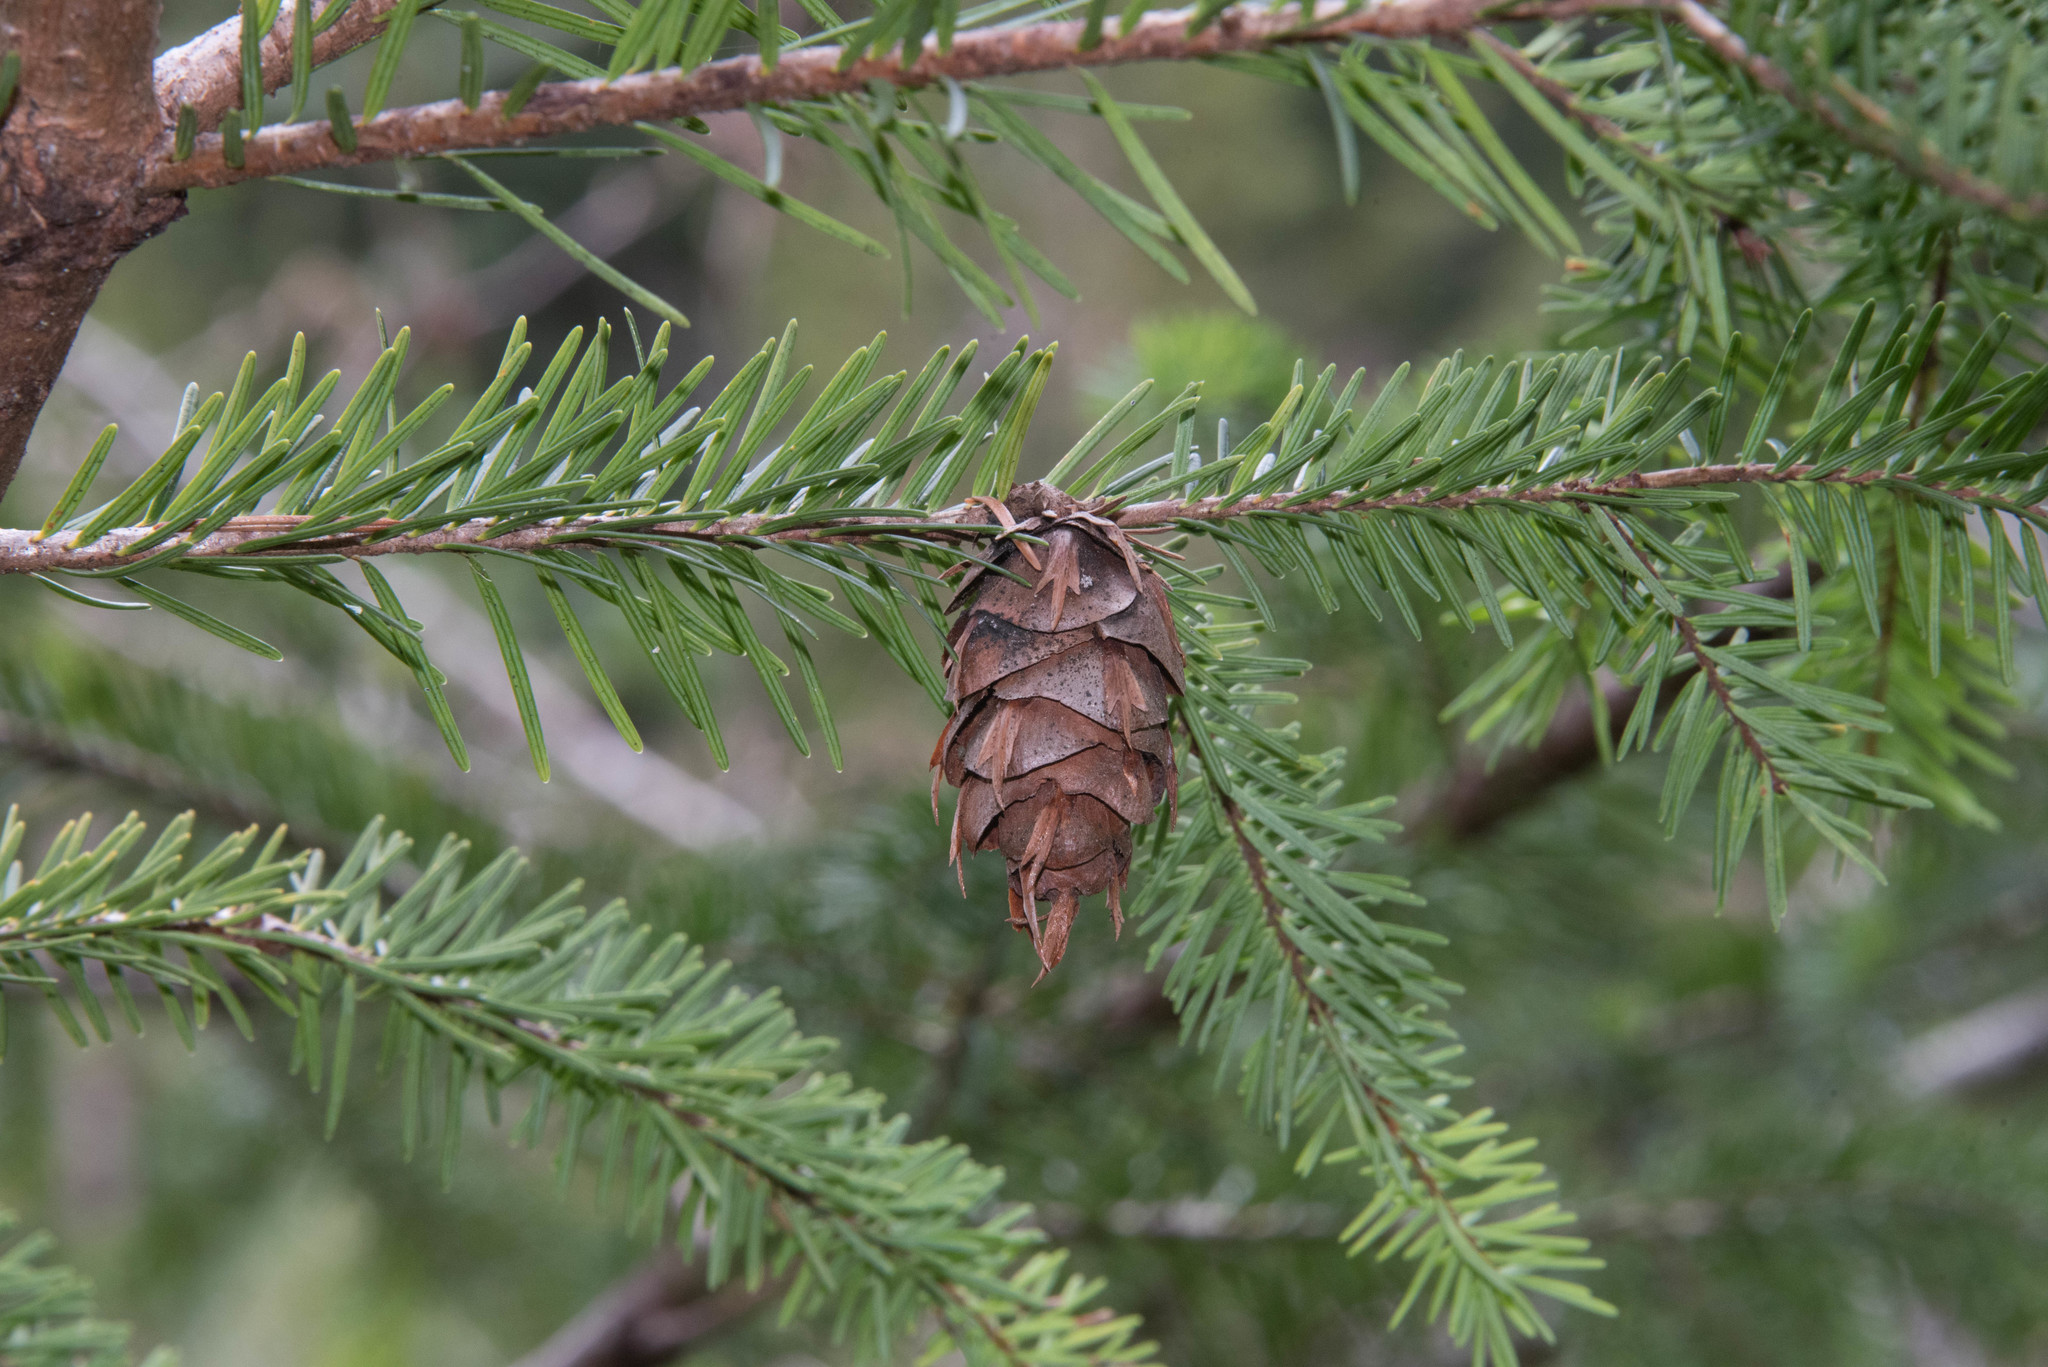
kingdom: Plantae
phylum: Tracheophyta
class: Pinopsida
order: Pinales
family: Pinaceae
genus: Pseudotsuga
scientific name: Pseudotsuga menziesii
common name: Douglas fir
